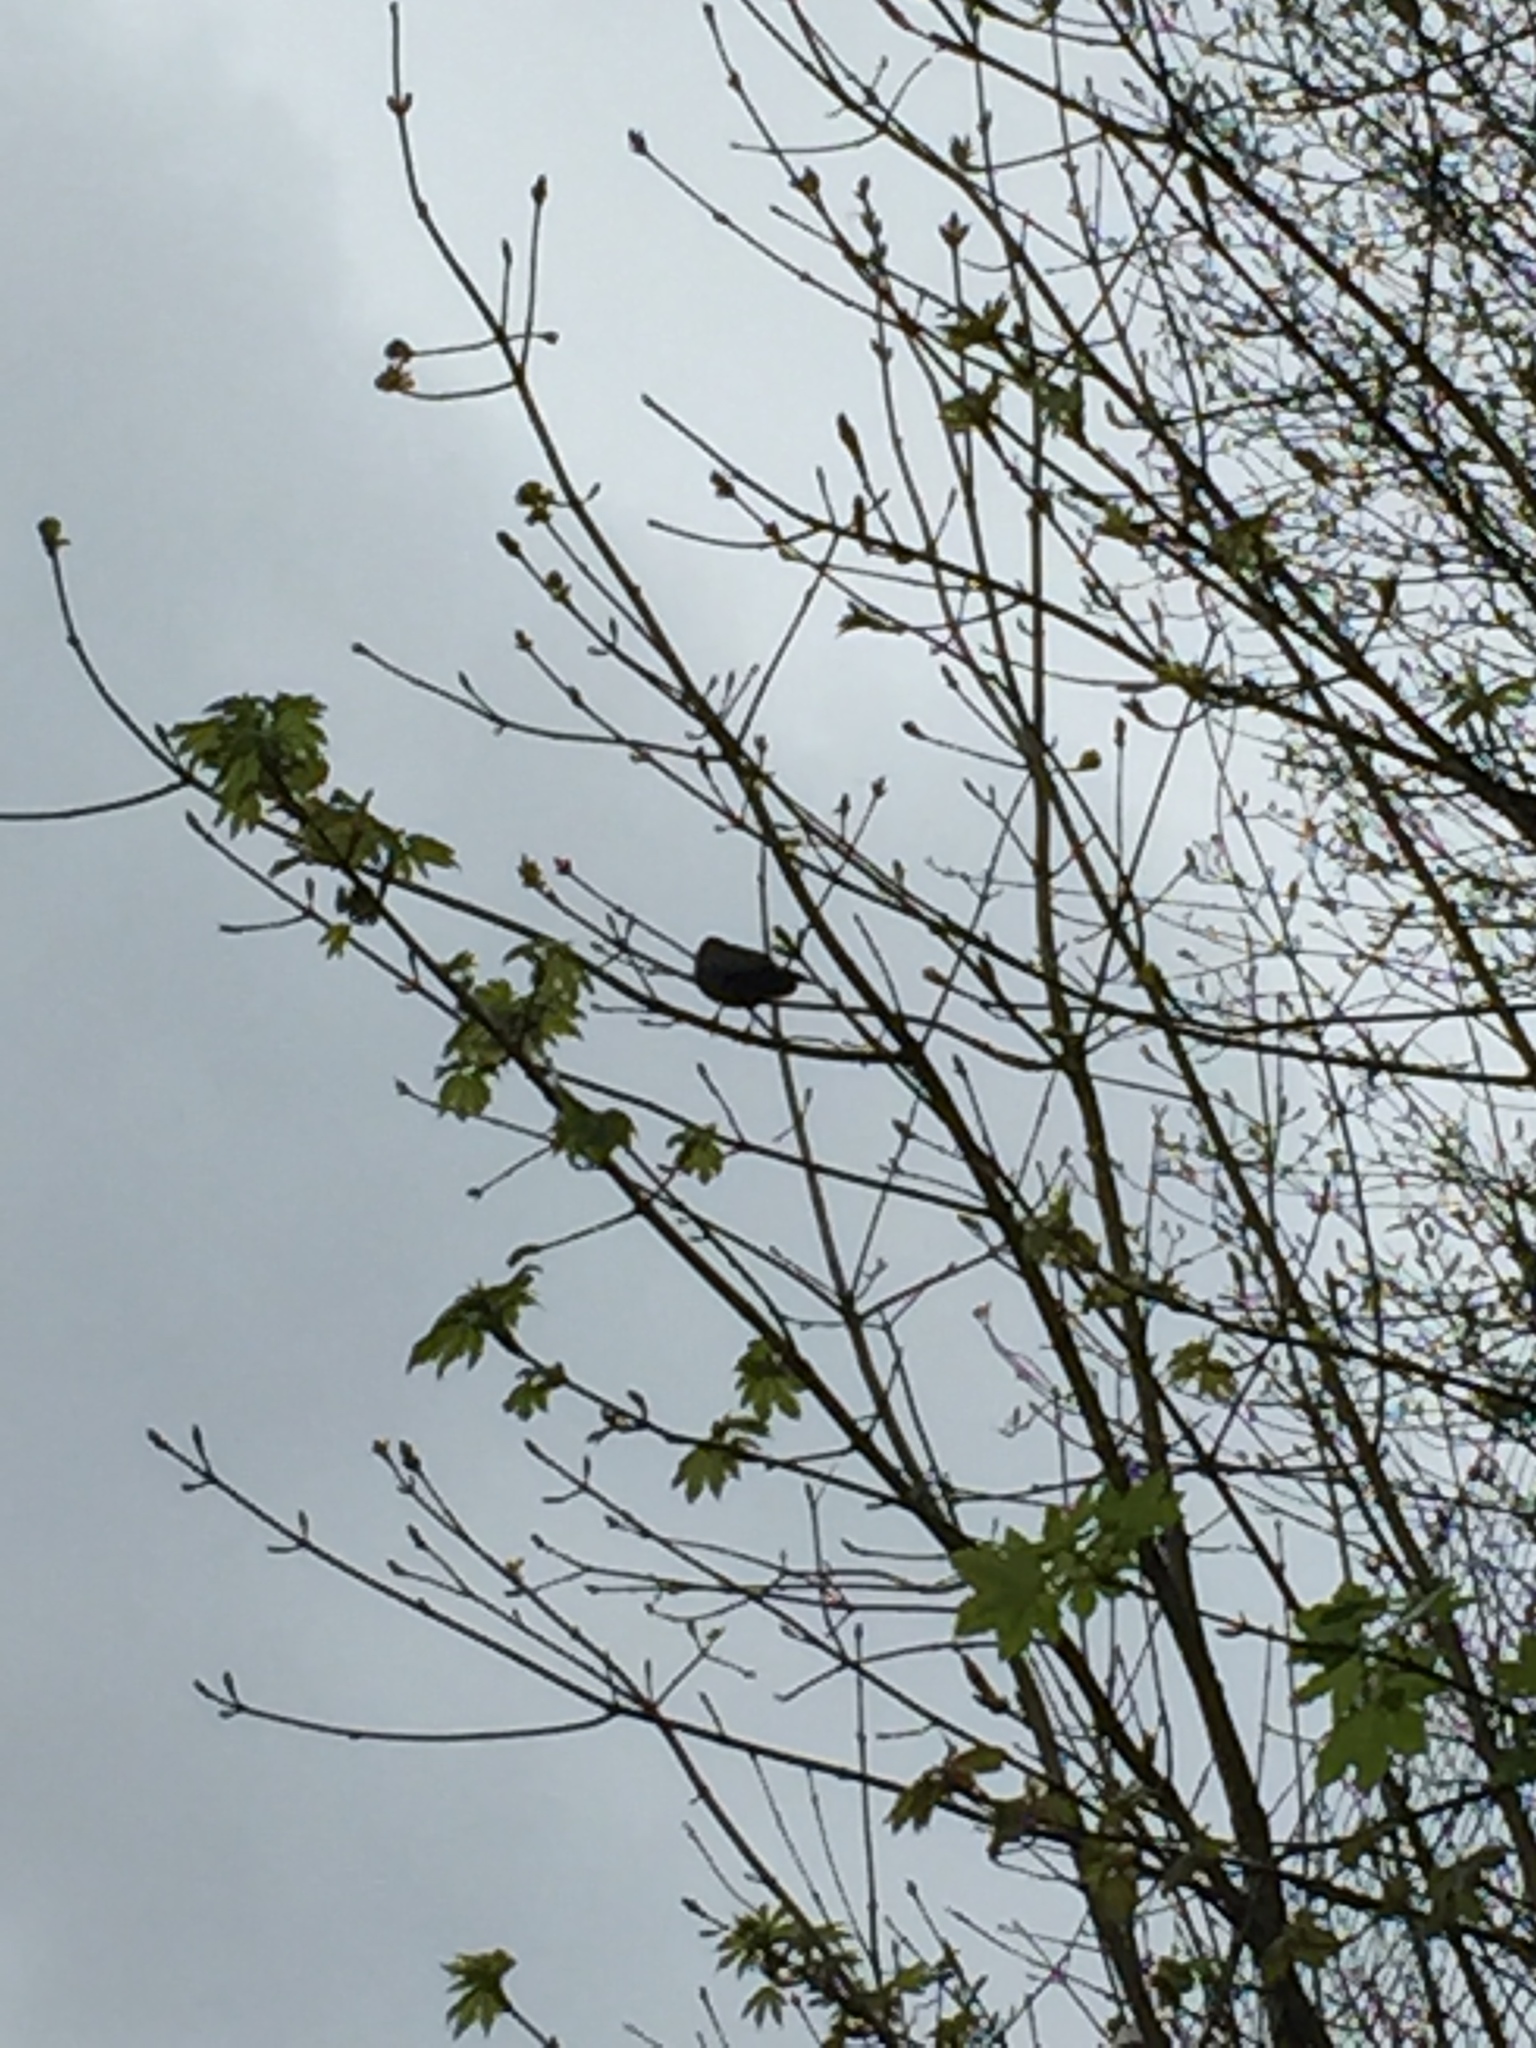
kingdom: Animalia
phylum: Chordata
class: Aves
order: Passeriformes
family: Turdidae
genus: Turdus
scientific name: Turdus merula
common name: Common blackbird
